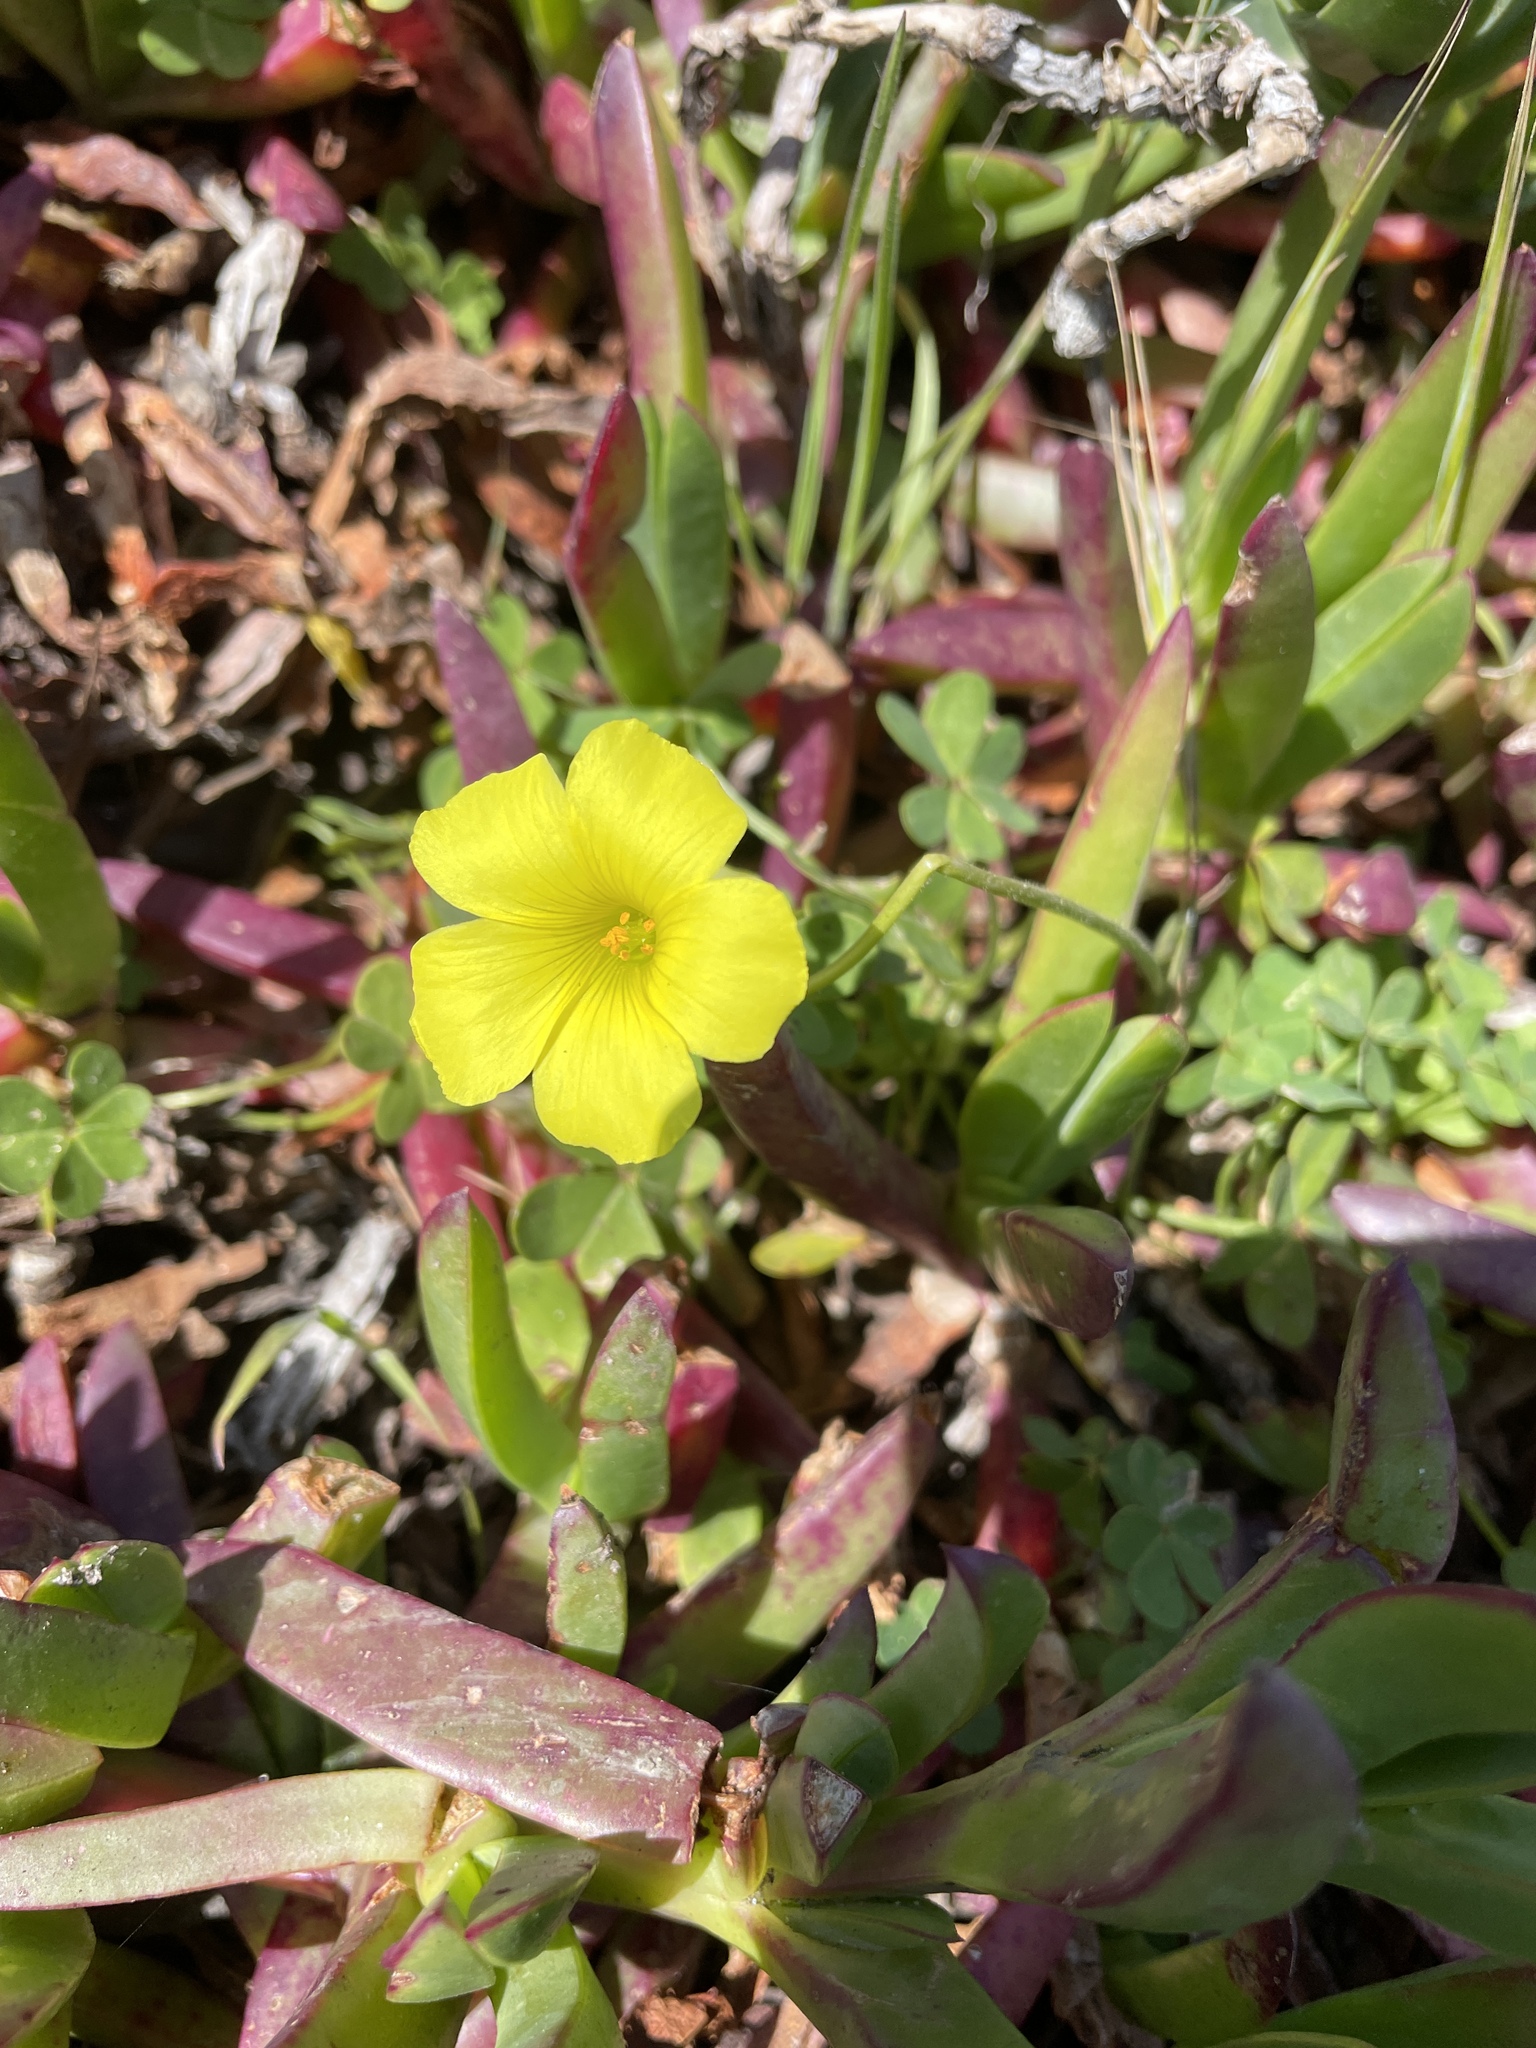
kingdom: Plantae
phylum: Tracheophyta
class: Magnoliopsida
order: Oxalidales
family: Oxalidaceae
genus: Oxalis
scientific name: Oxalis pes-caprae
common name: Bermuda-buttercup
